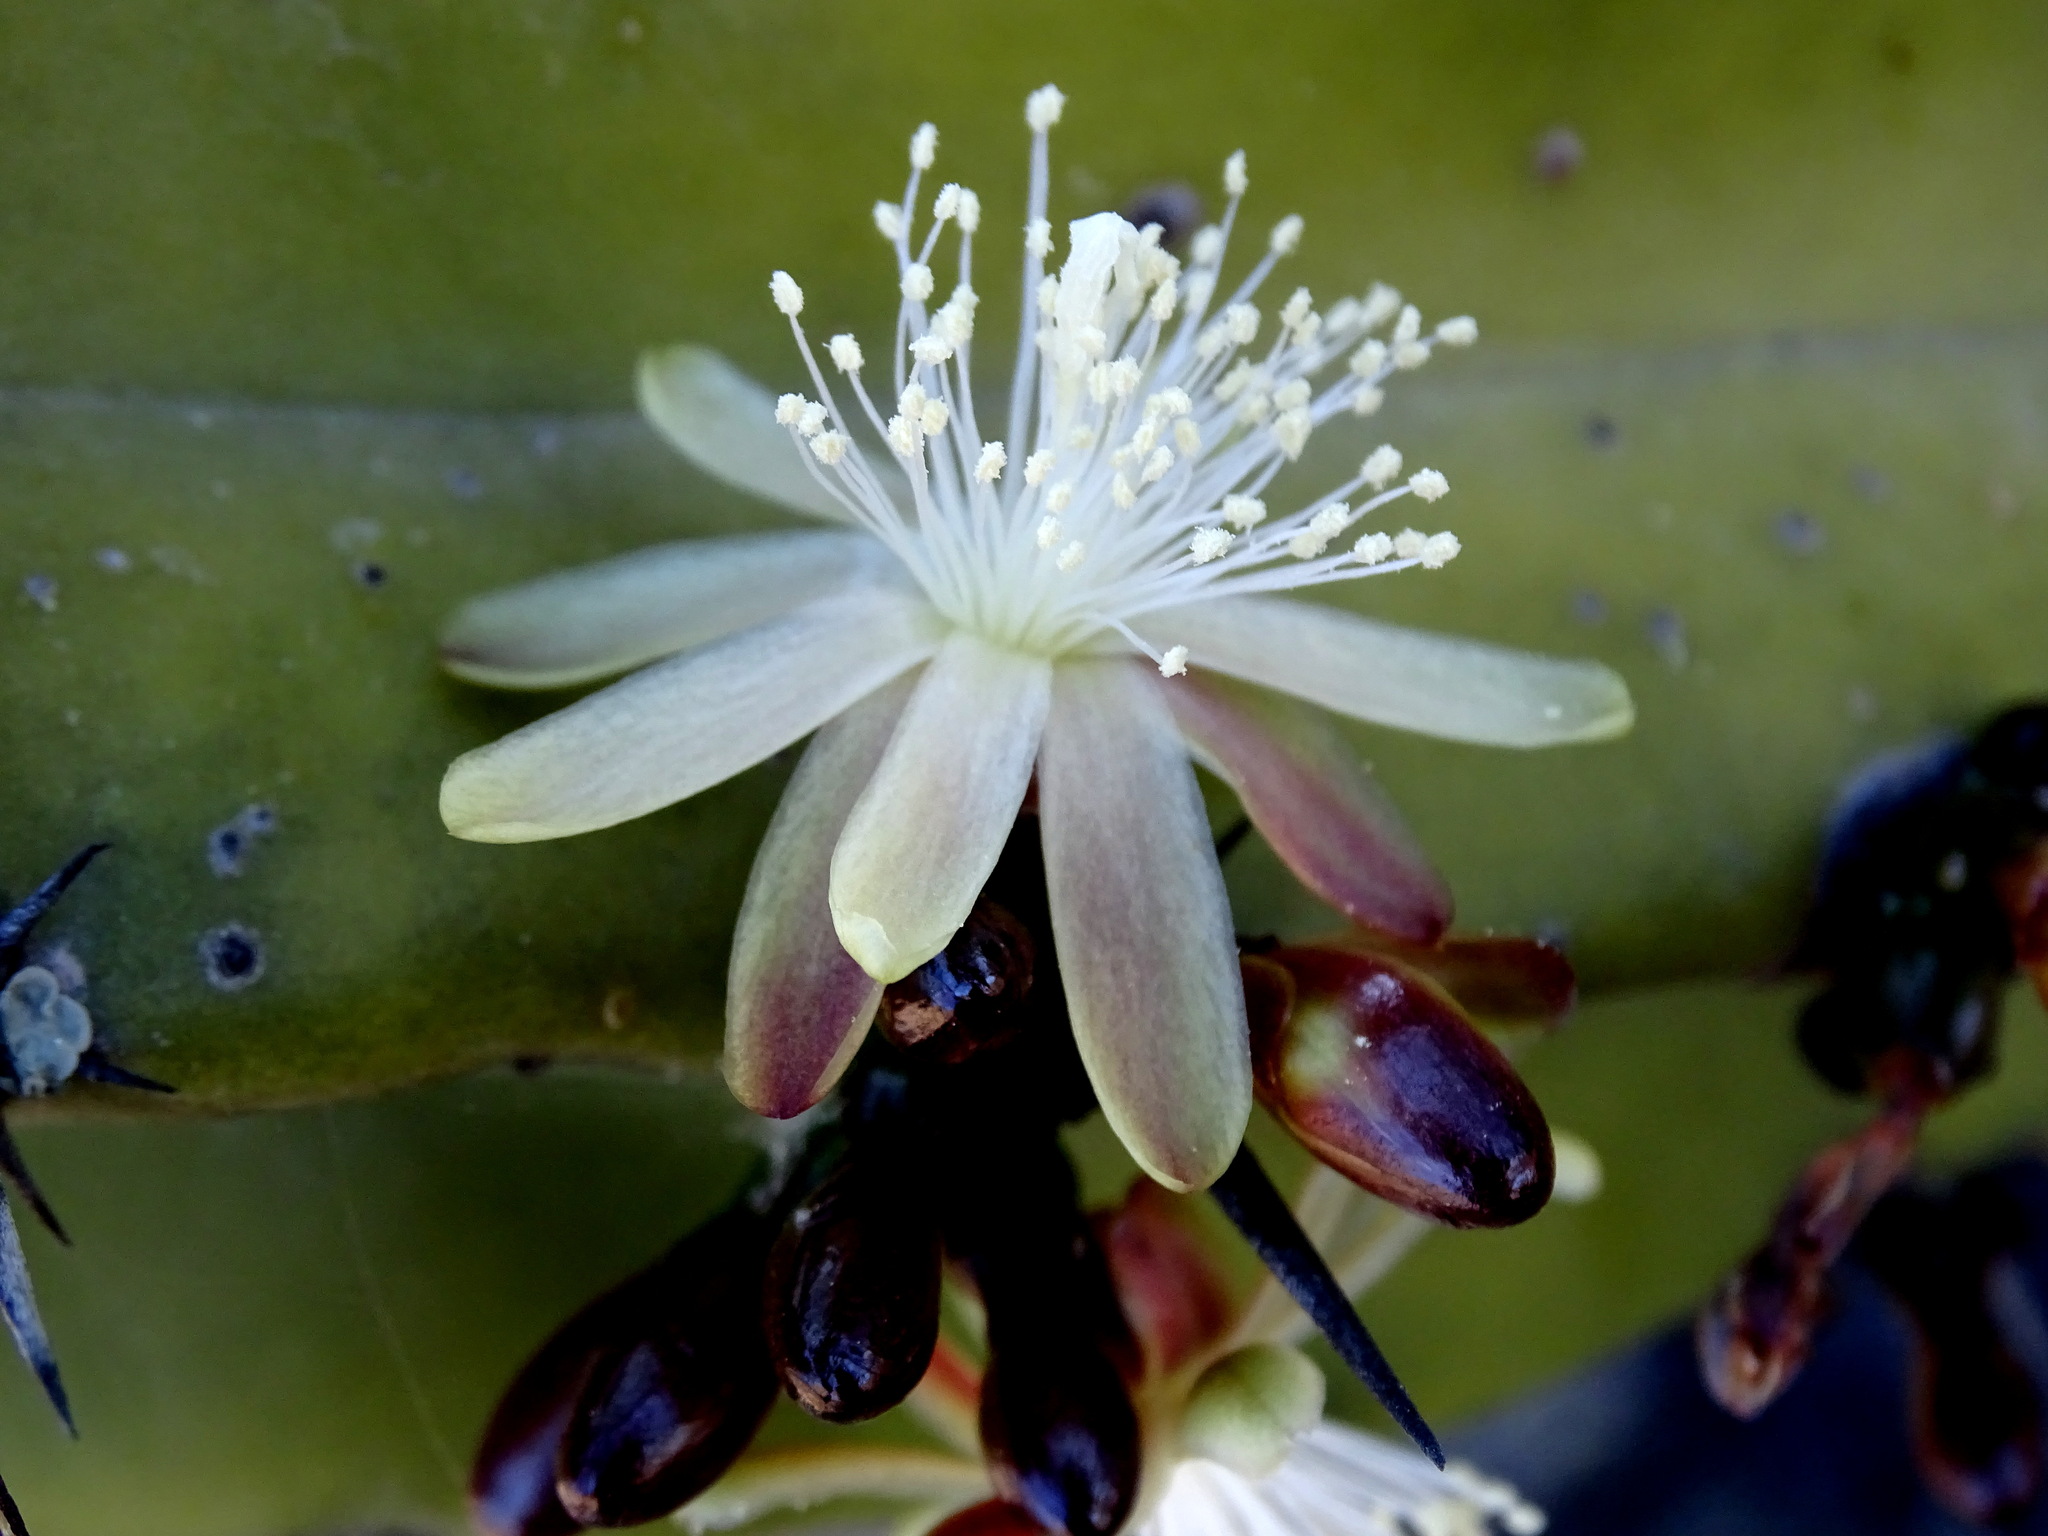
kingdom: Plantae
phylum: Tracheophyta
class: Magnoliopsida
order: Caryophyllales
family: Cactaceae
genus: Myrtillocactus
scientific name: Myrtillocactus geometrizans
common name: Bilberry cactus
